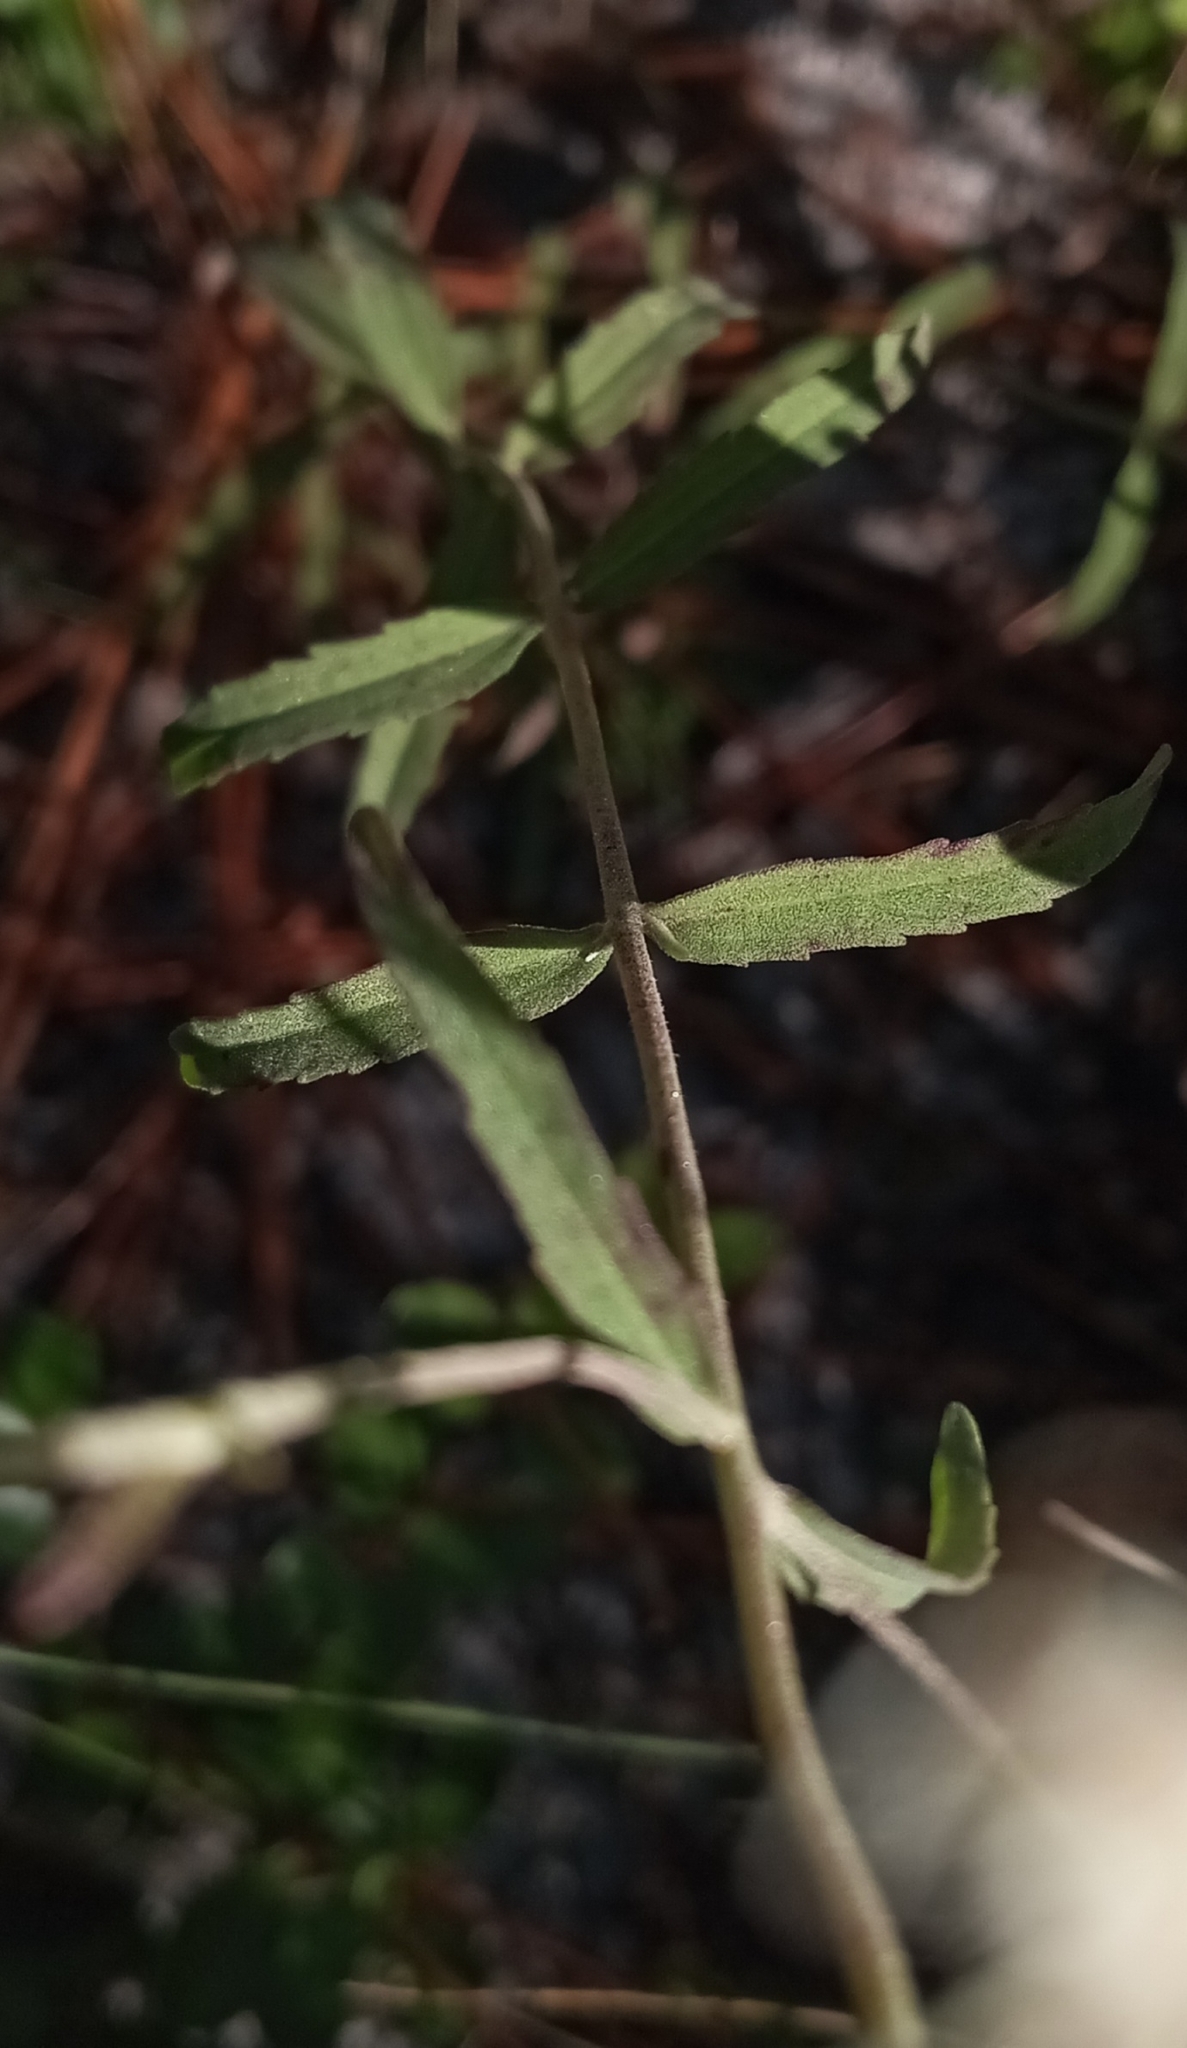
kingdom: Plantae
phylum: Tracheophyta
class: Magnoliopsida
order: Asterales
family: Asteraceae
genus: Eupatorium
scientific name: Eupatorium mohrii
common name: Mohr's thoroughwort
